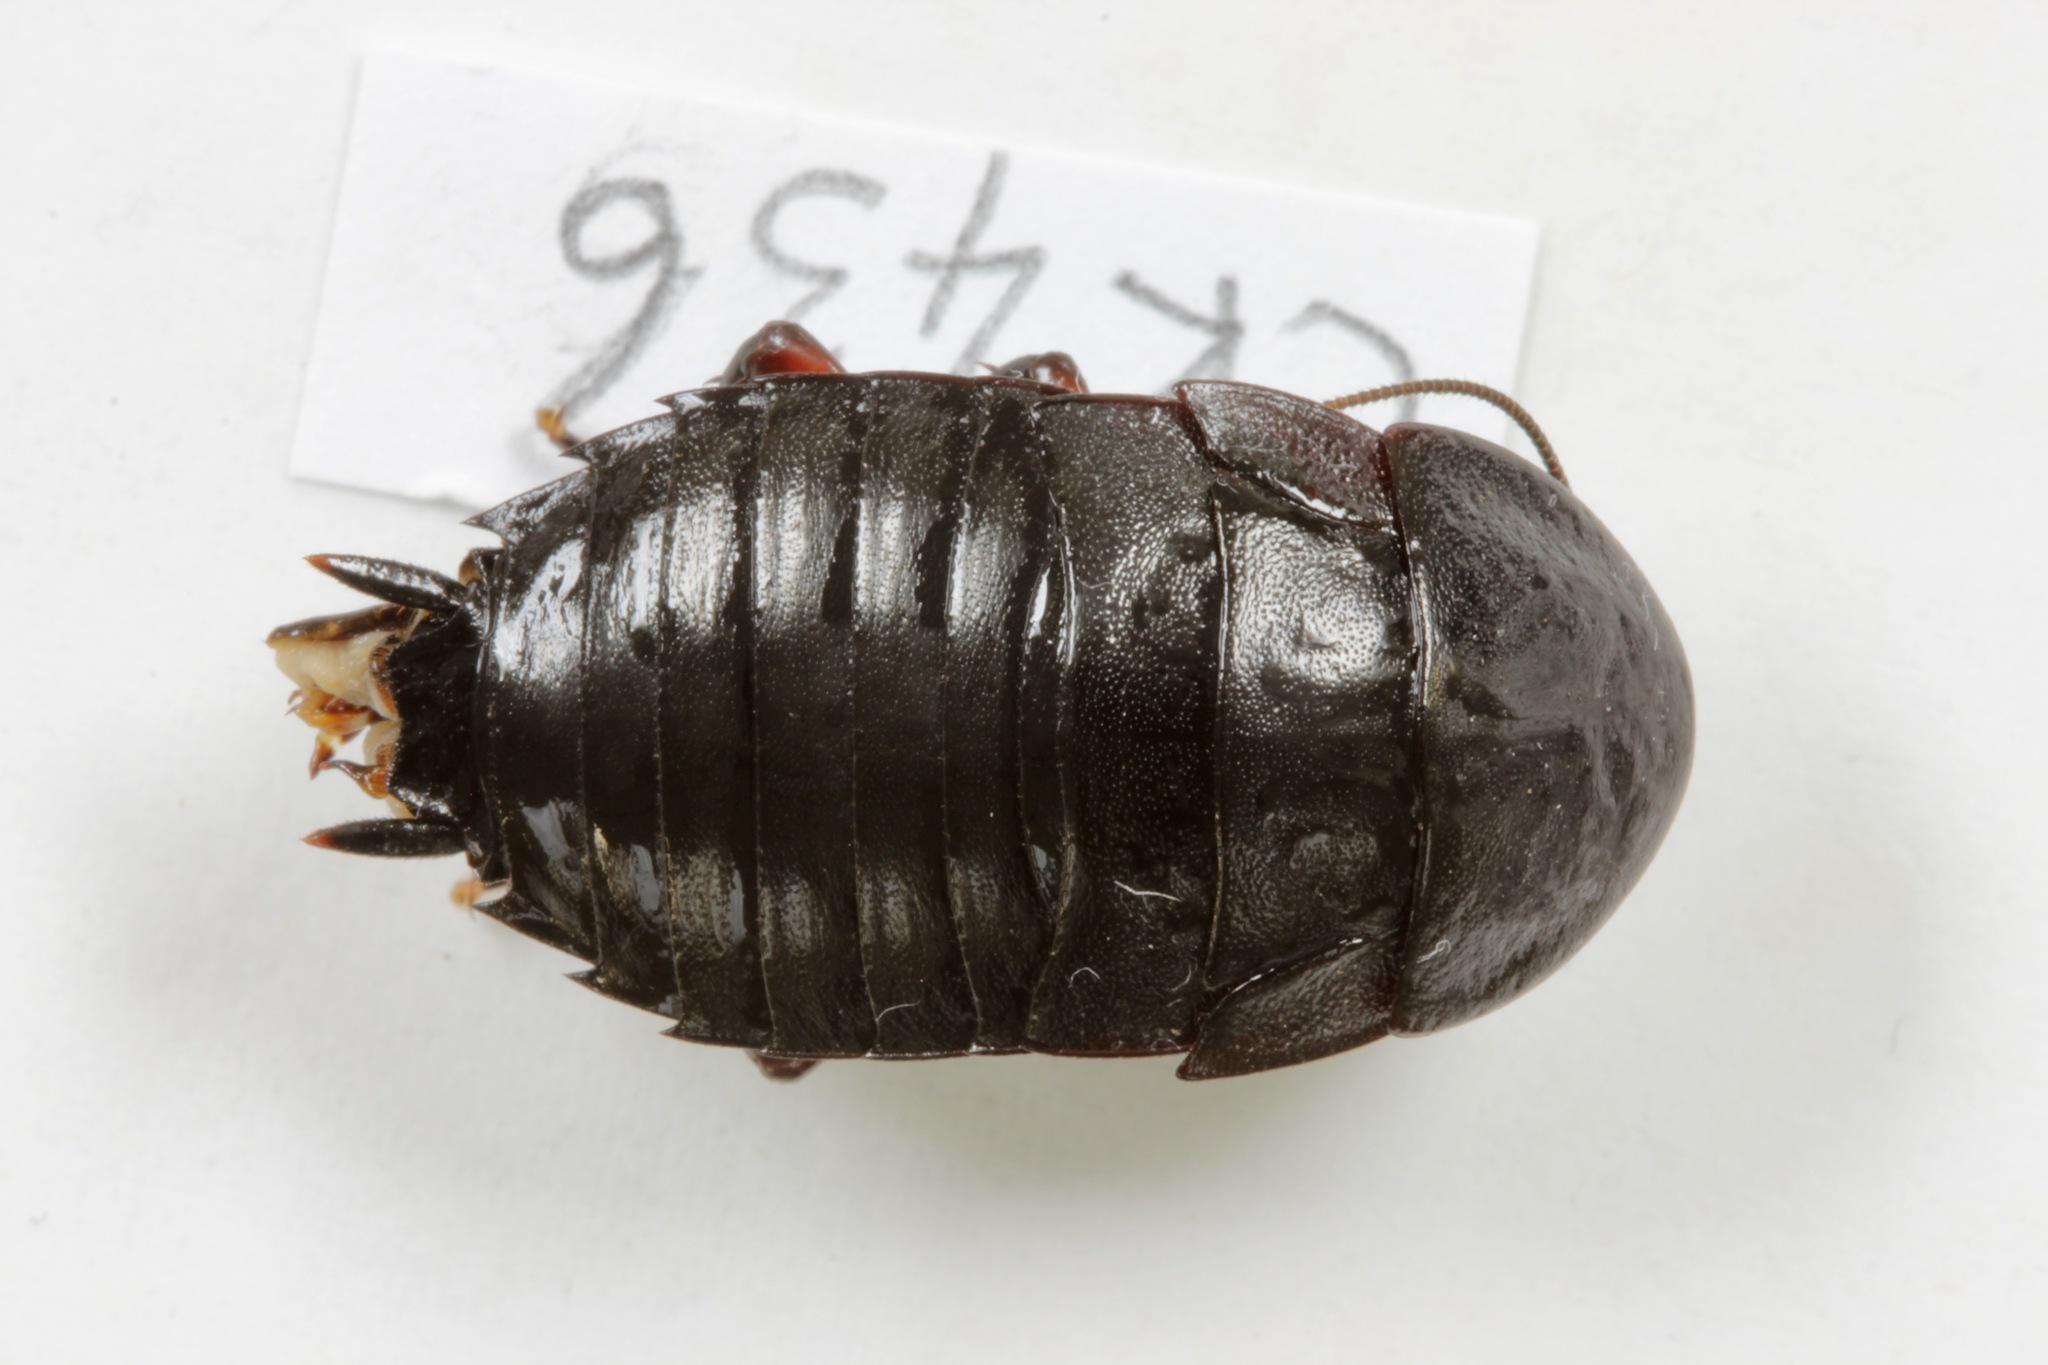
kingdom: Animalia
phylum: Arthropoda
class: Insecta
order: Blattodea
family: Blattidae
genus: Maoriblatta
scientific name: Maoriblatta novaeseelandiae
